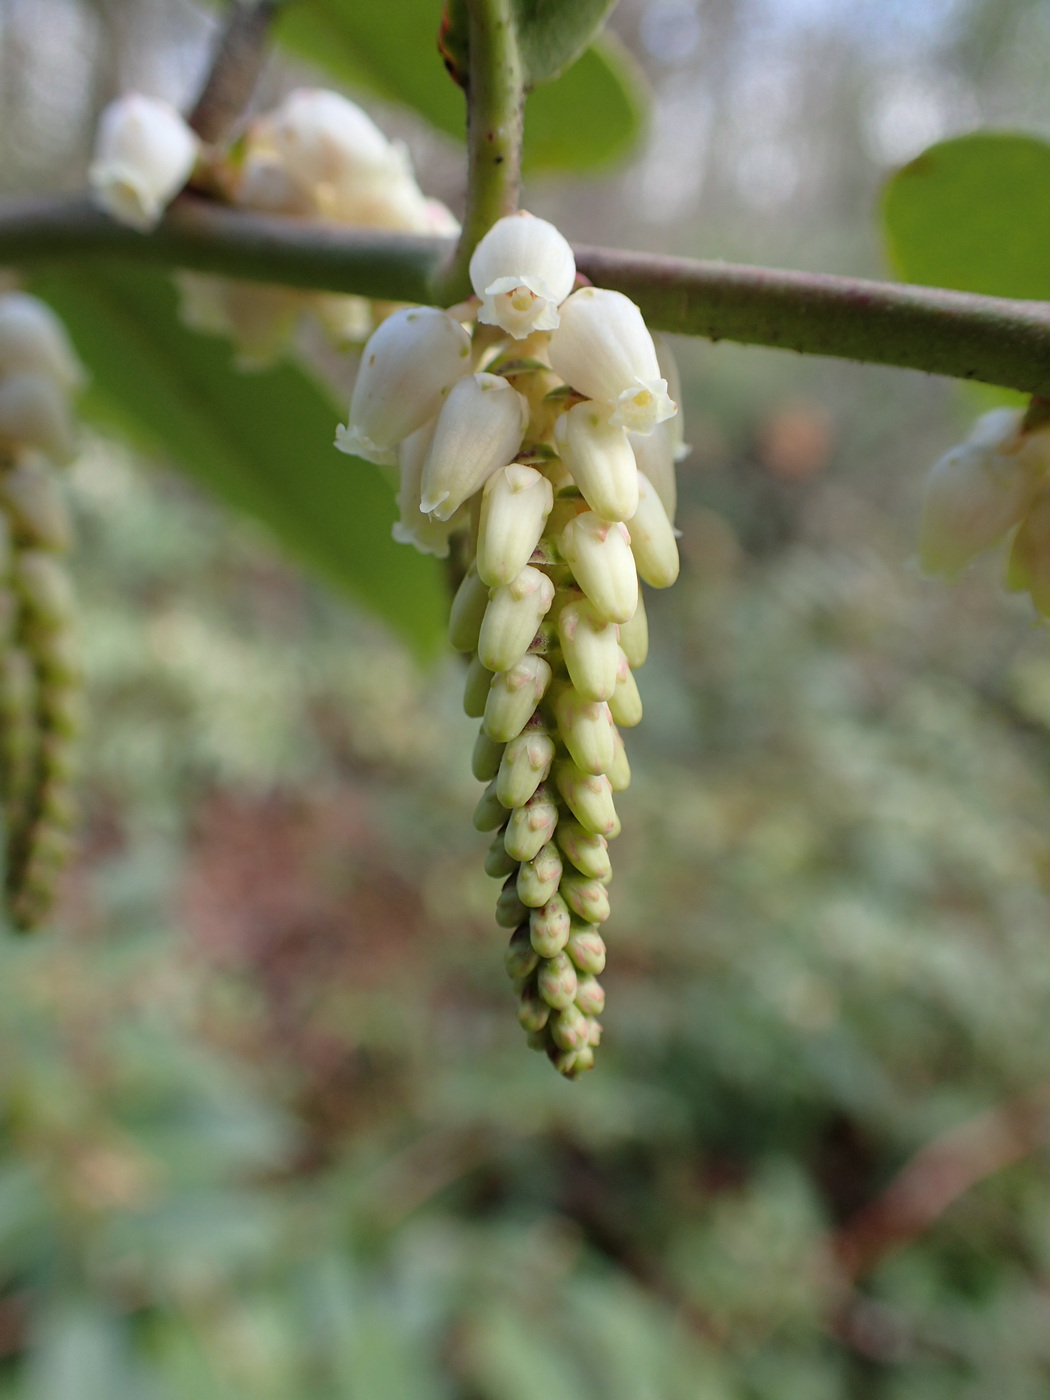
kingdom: Plantae
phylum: Tracheophyta
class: Magnoliopsida
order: Ericales
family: Ericaceae
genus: Leucothoe
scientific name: Leucothoe fontanesiana
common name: Fetterbush
